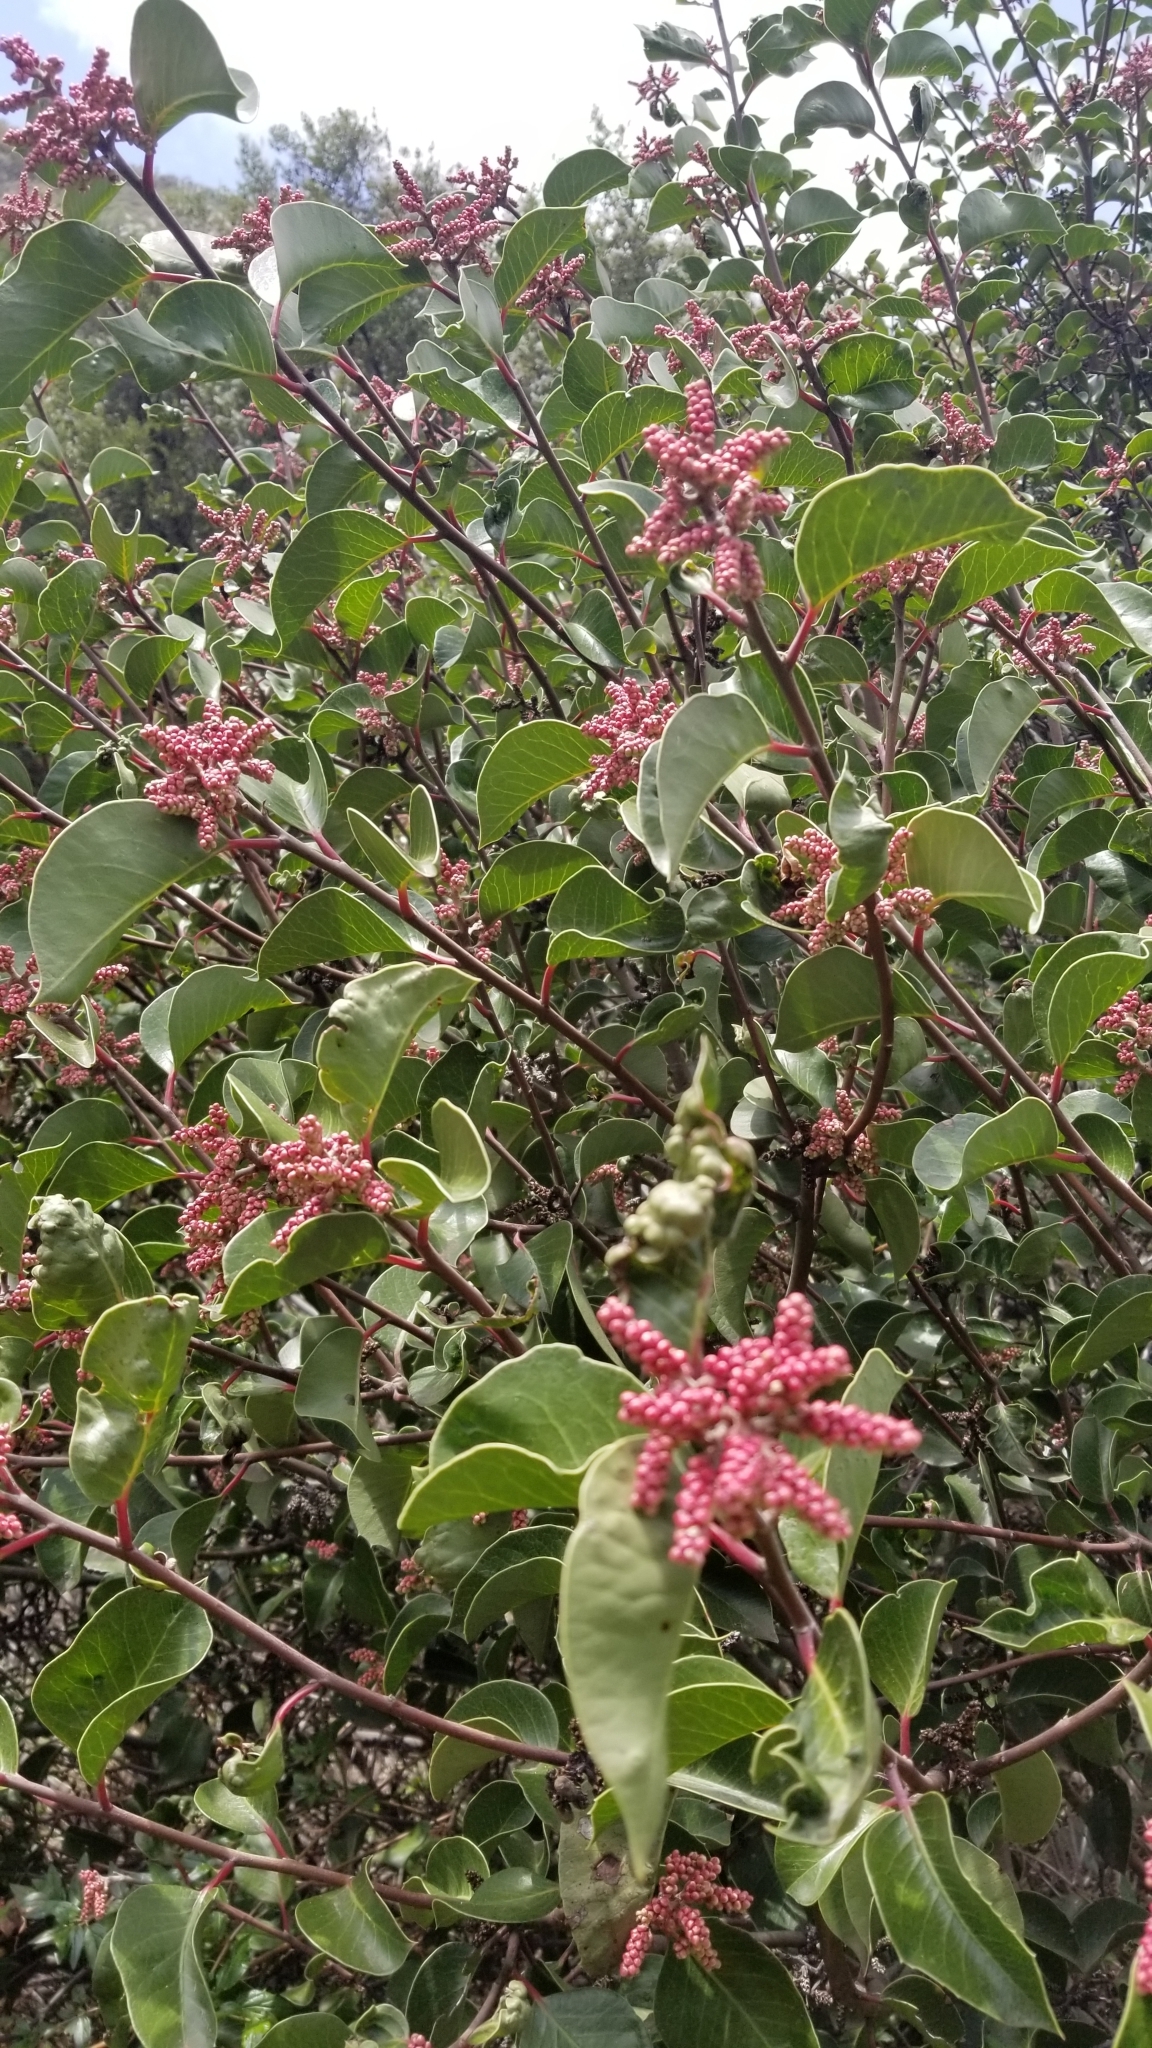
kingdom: Plantae
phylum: Tracheophyta
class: Magnoliopsida
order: Sapindales
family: Anacardiaceae
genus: Rhus
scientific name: Rhus ovata
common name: Sugar sumac
